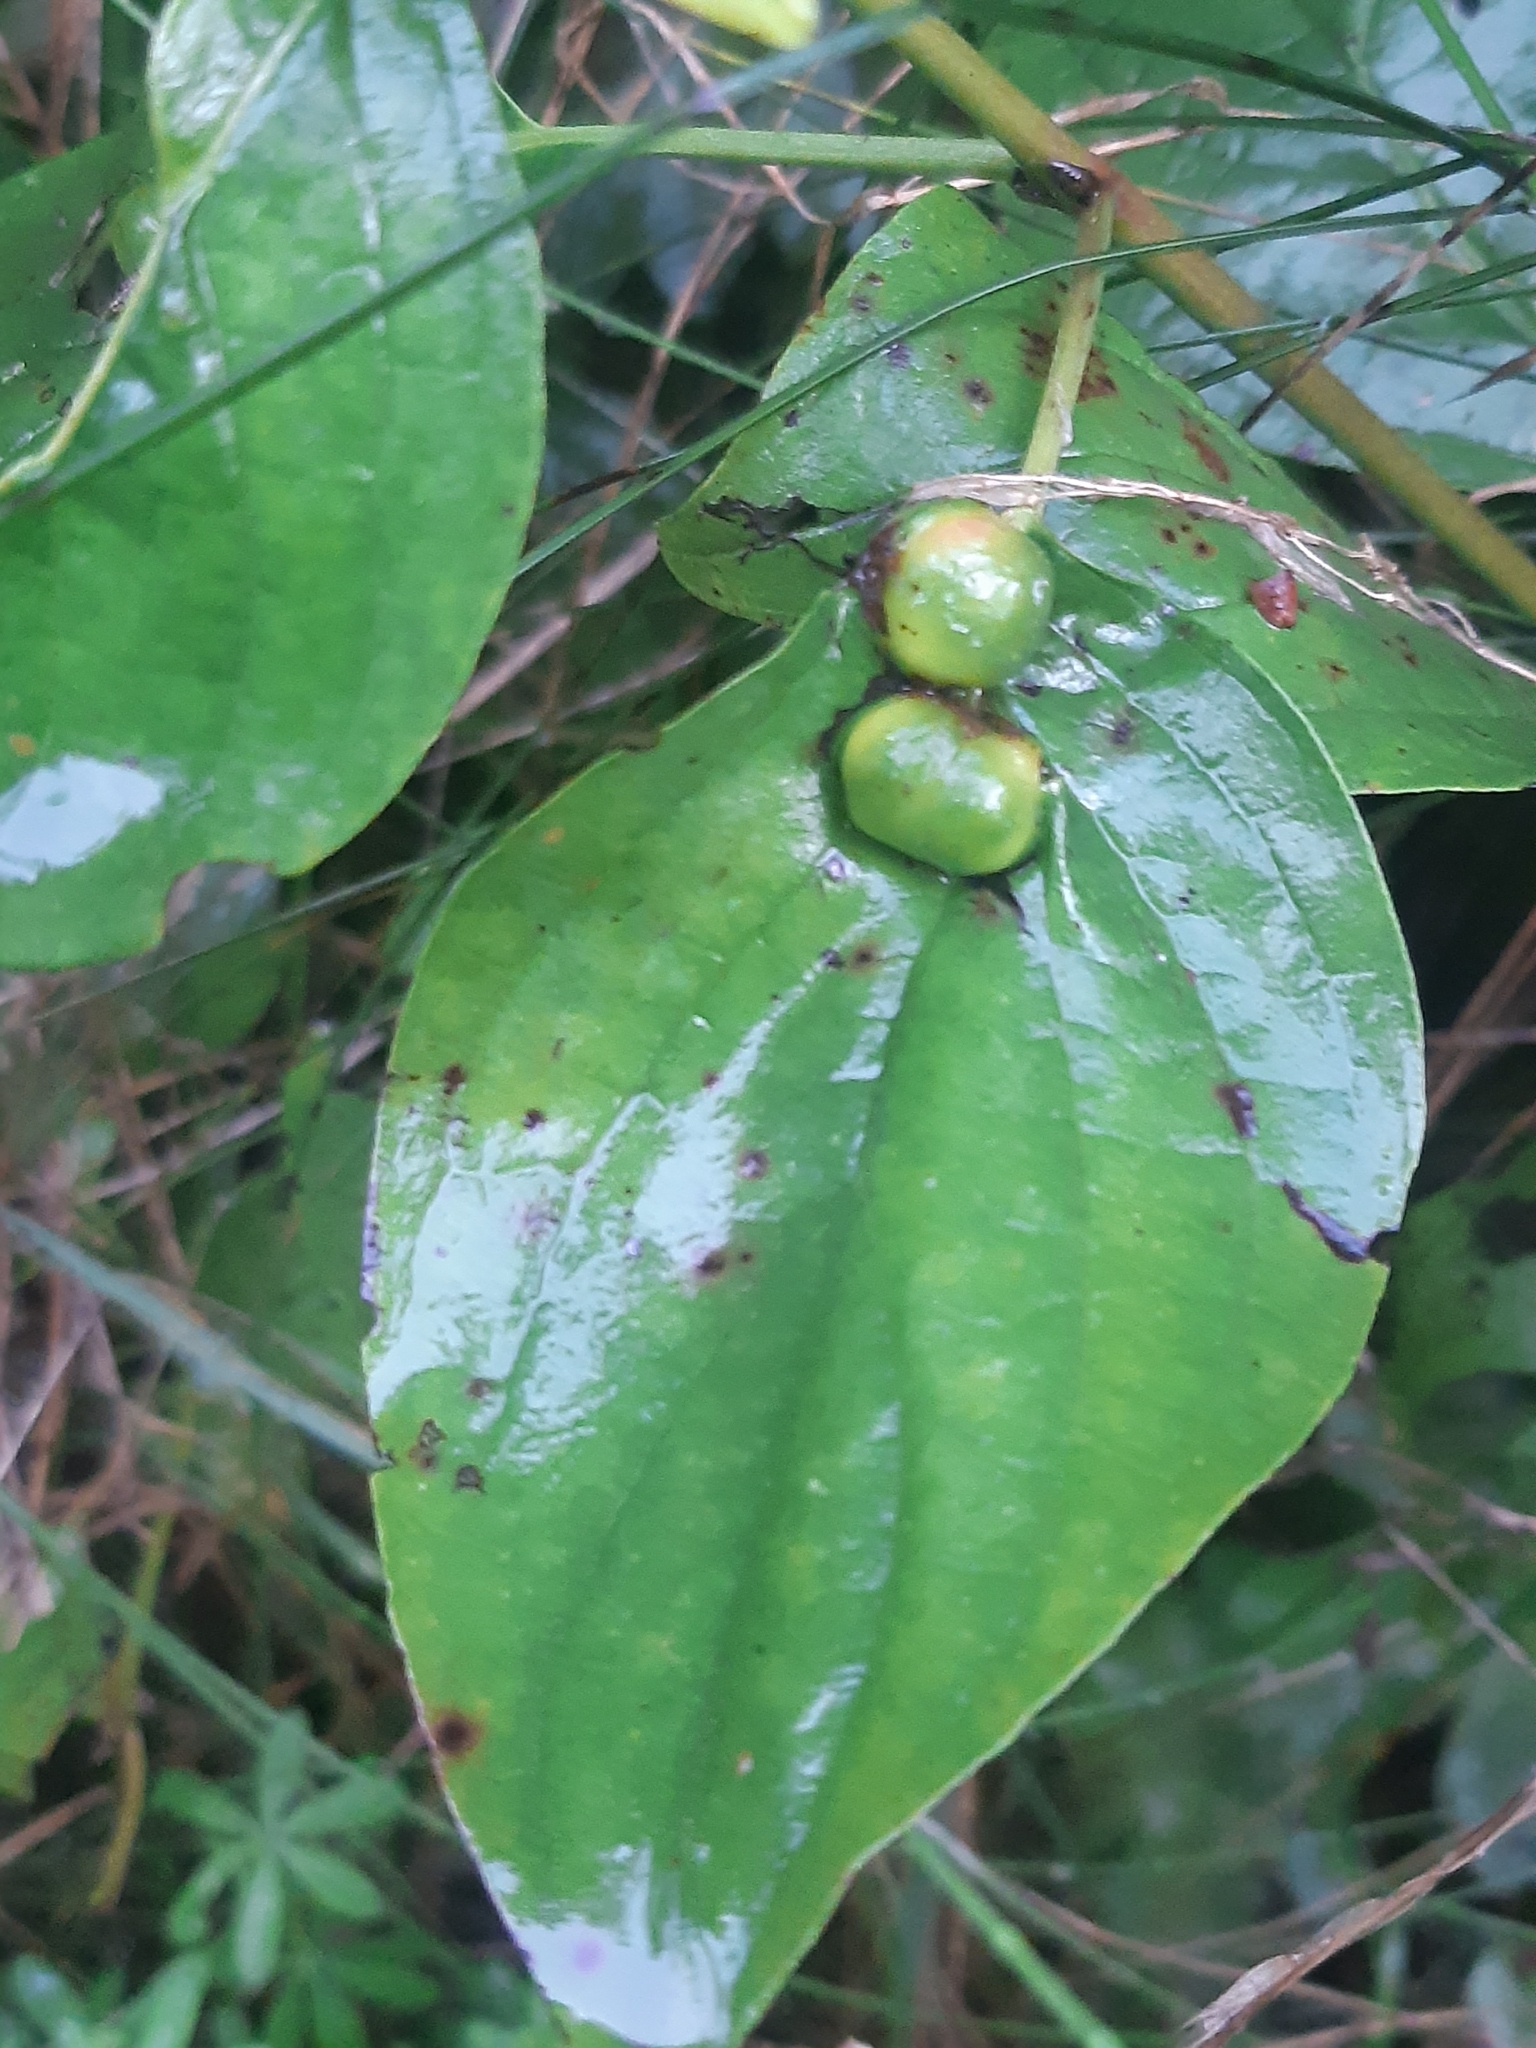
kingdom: Animalia
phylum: Arthropoda
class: Insecta
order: Diptera
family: Cecidomyiidae
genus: Craneiobia
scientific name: Craneiobia corni
